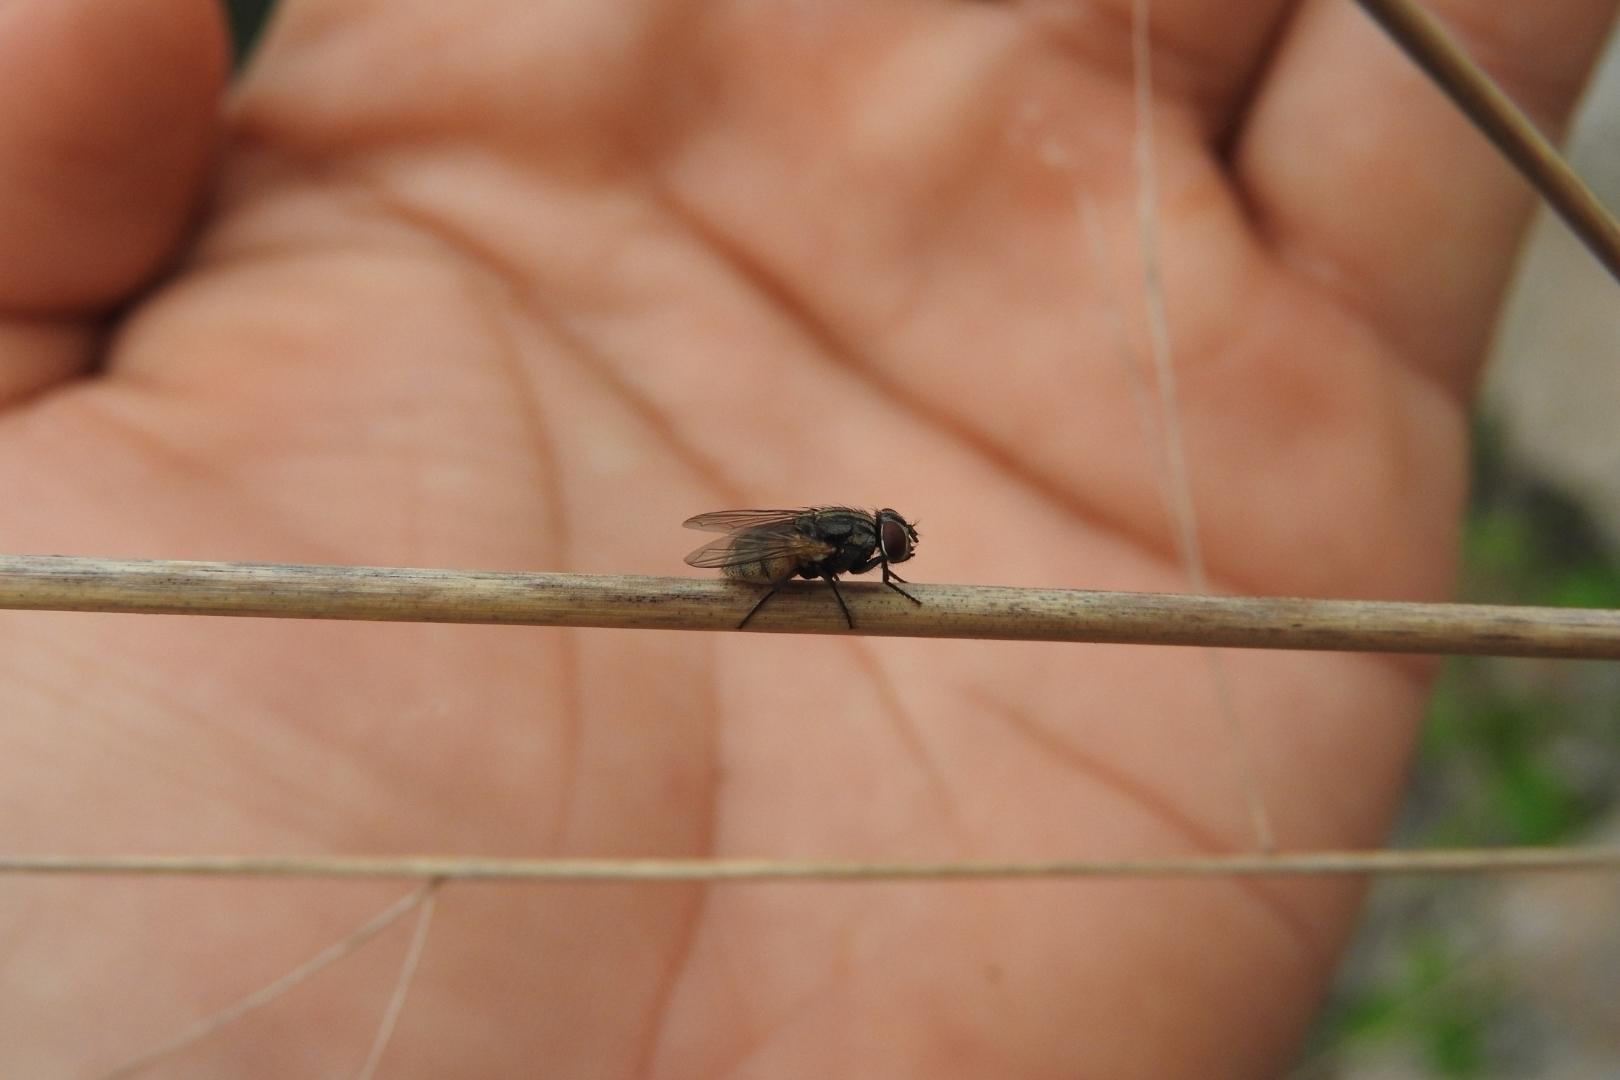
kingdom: Animalia
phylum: Arthropoda
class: Insecta
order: Diptera
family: Muscidae
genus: Musca
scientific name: Musca domestica
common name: House fly
